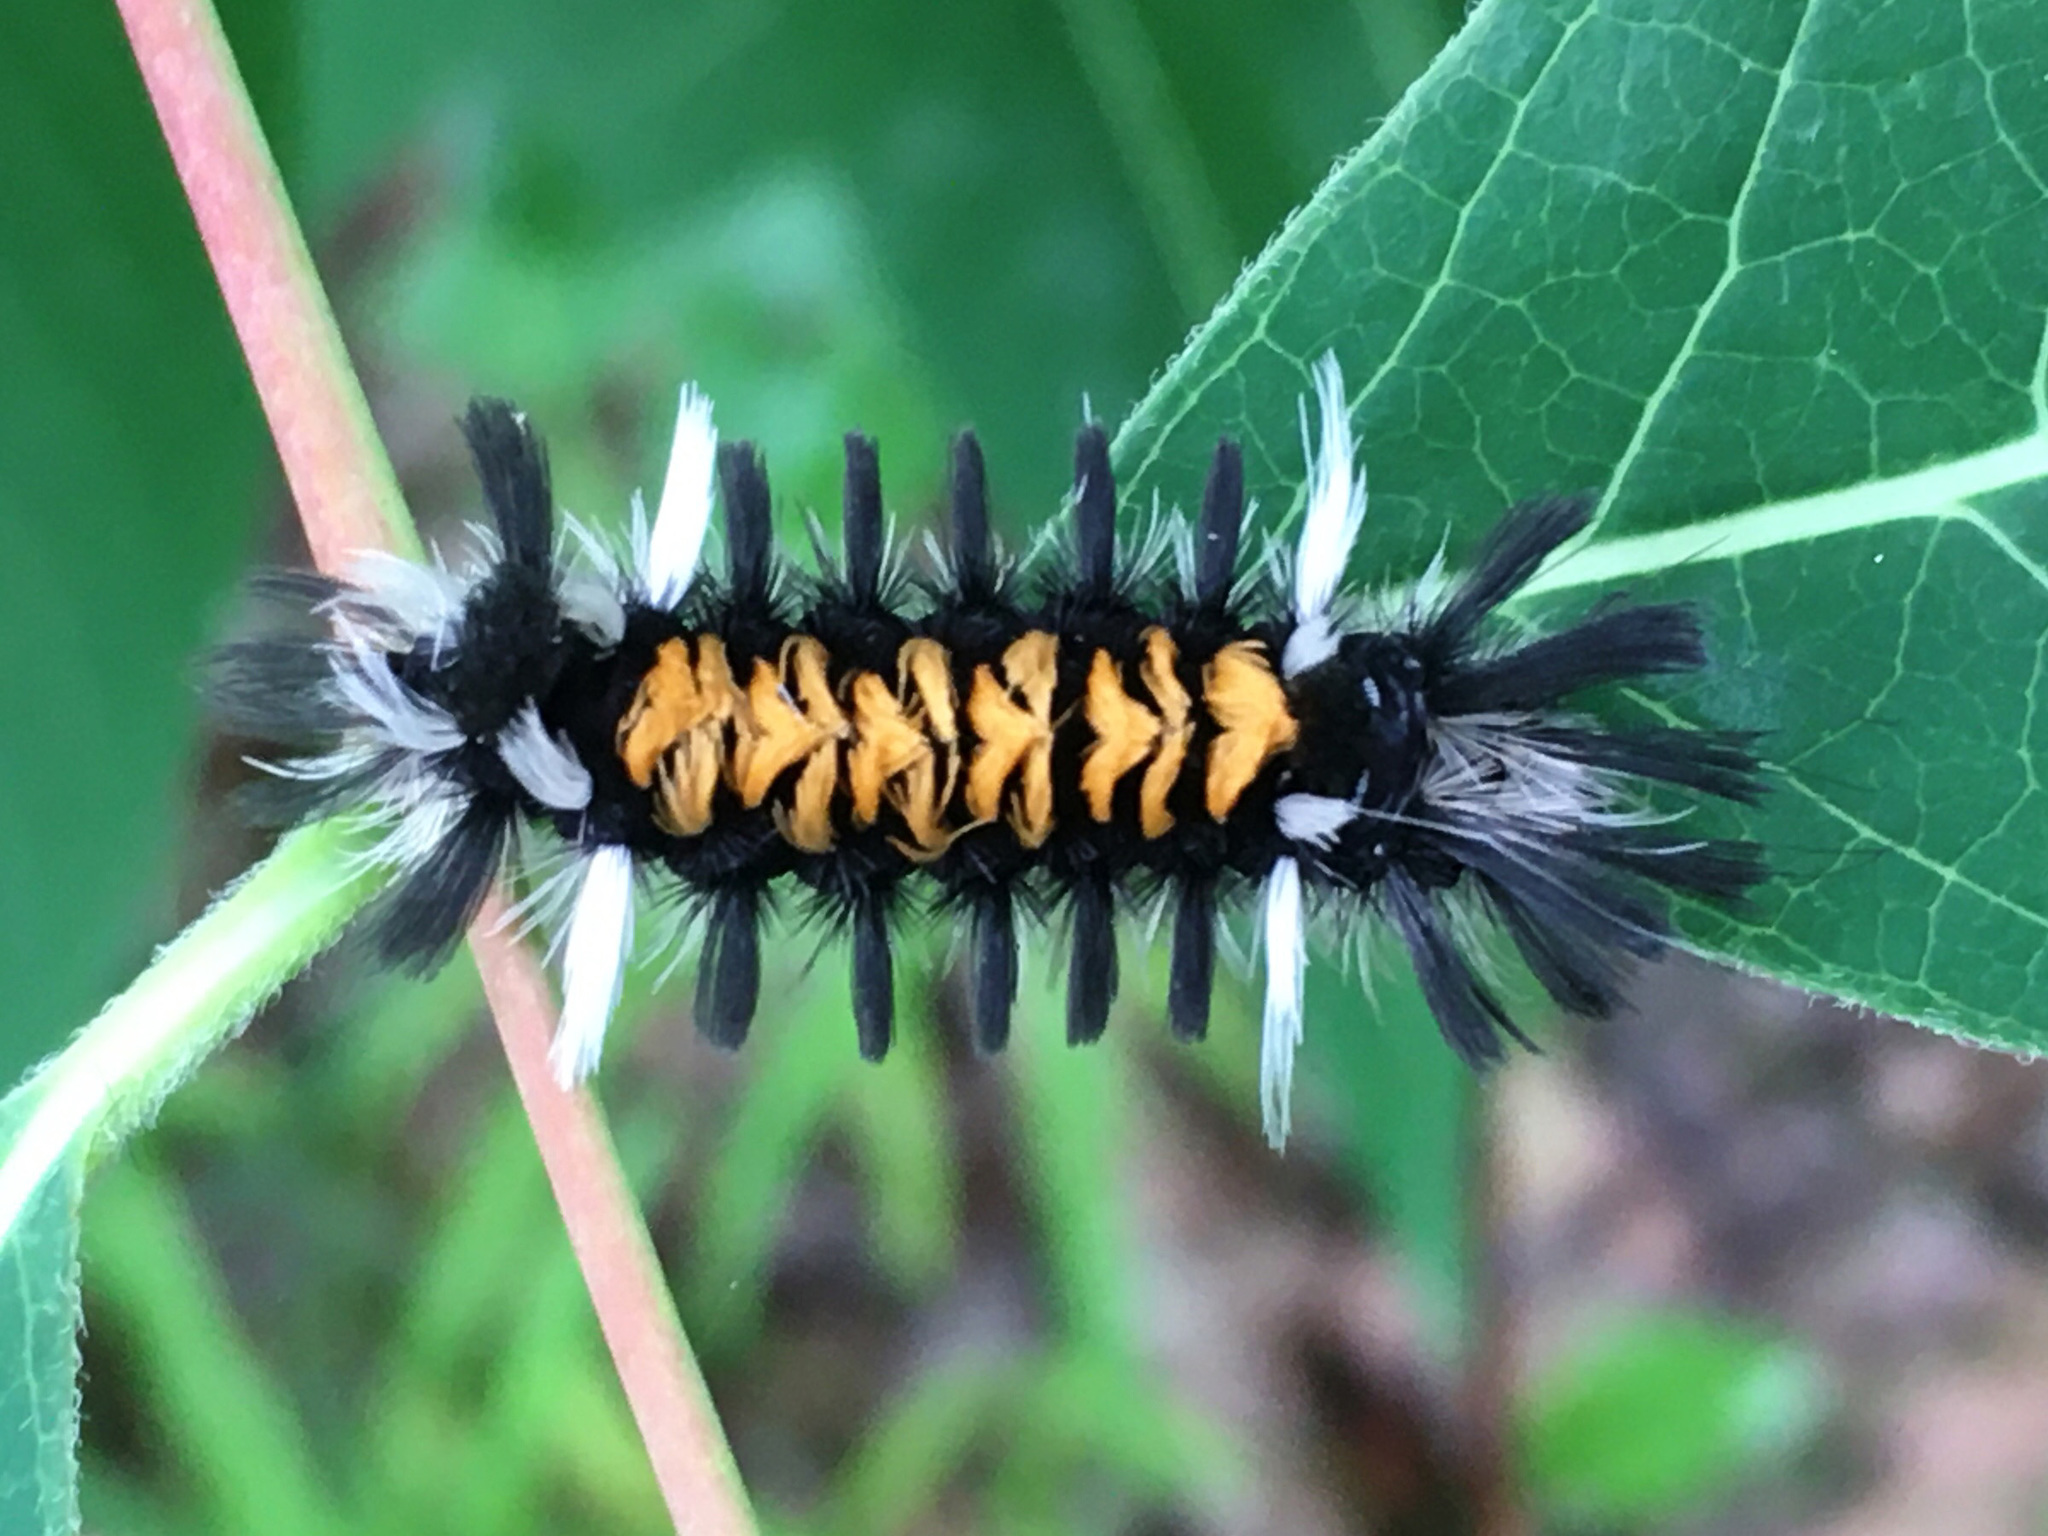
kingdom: Animalia
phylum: Arthropoda
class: Insecta
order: Lepidoptera
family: Erebidae
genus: Euchaetes
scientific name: Euchaetes egle
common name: Milkweed tussock moth
